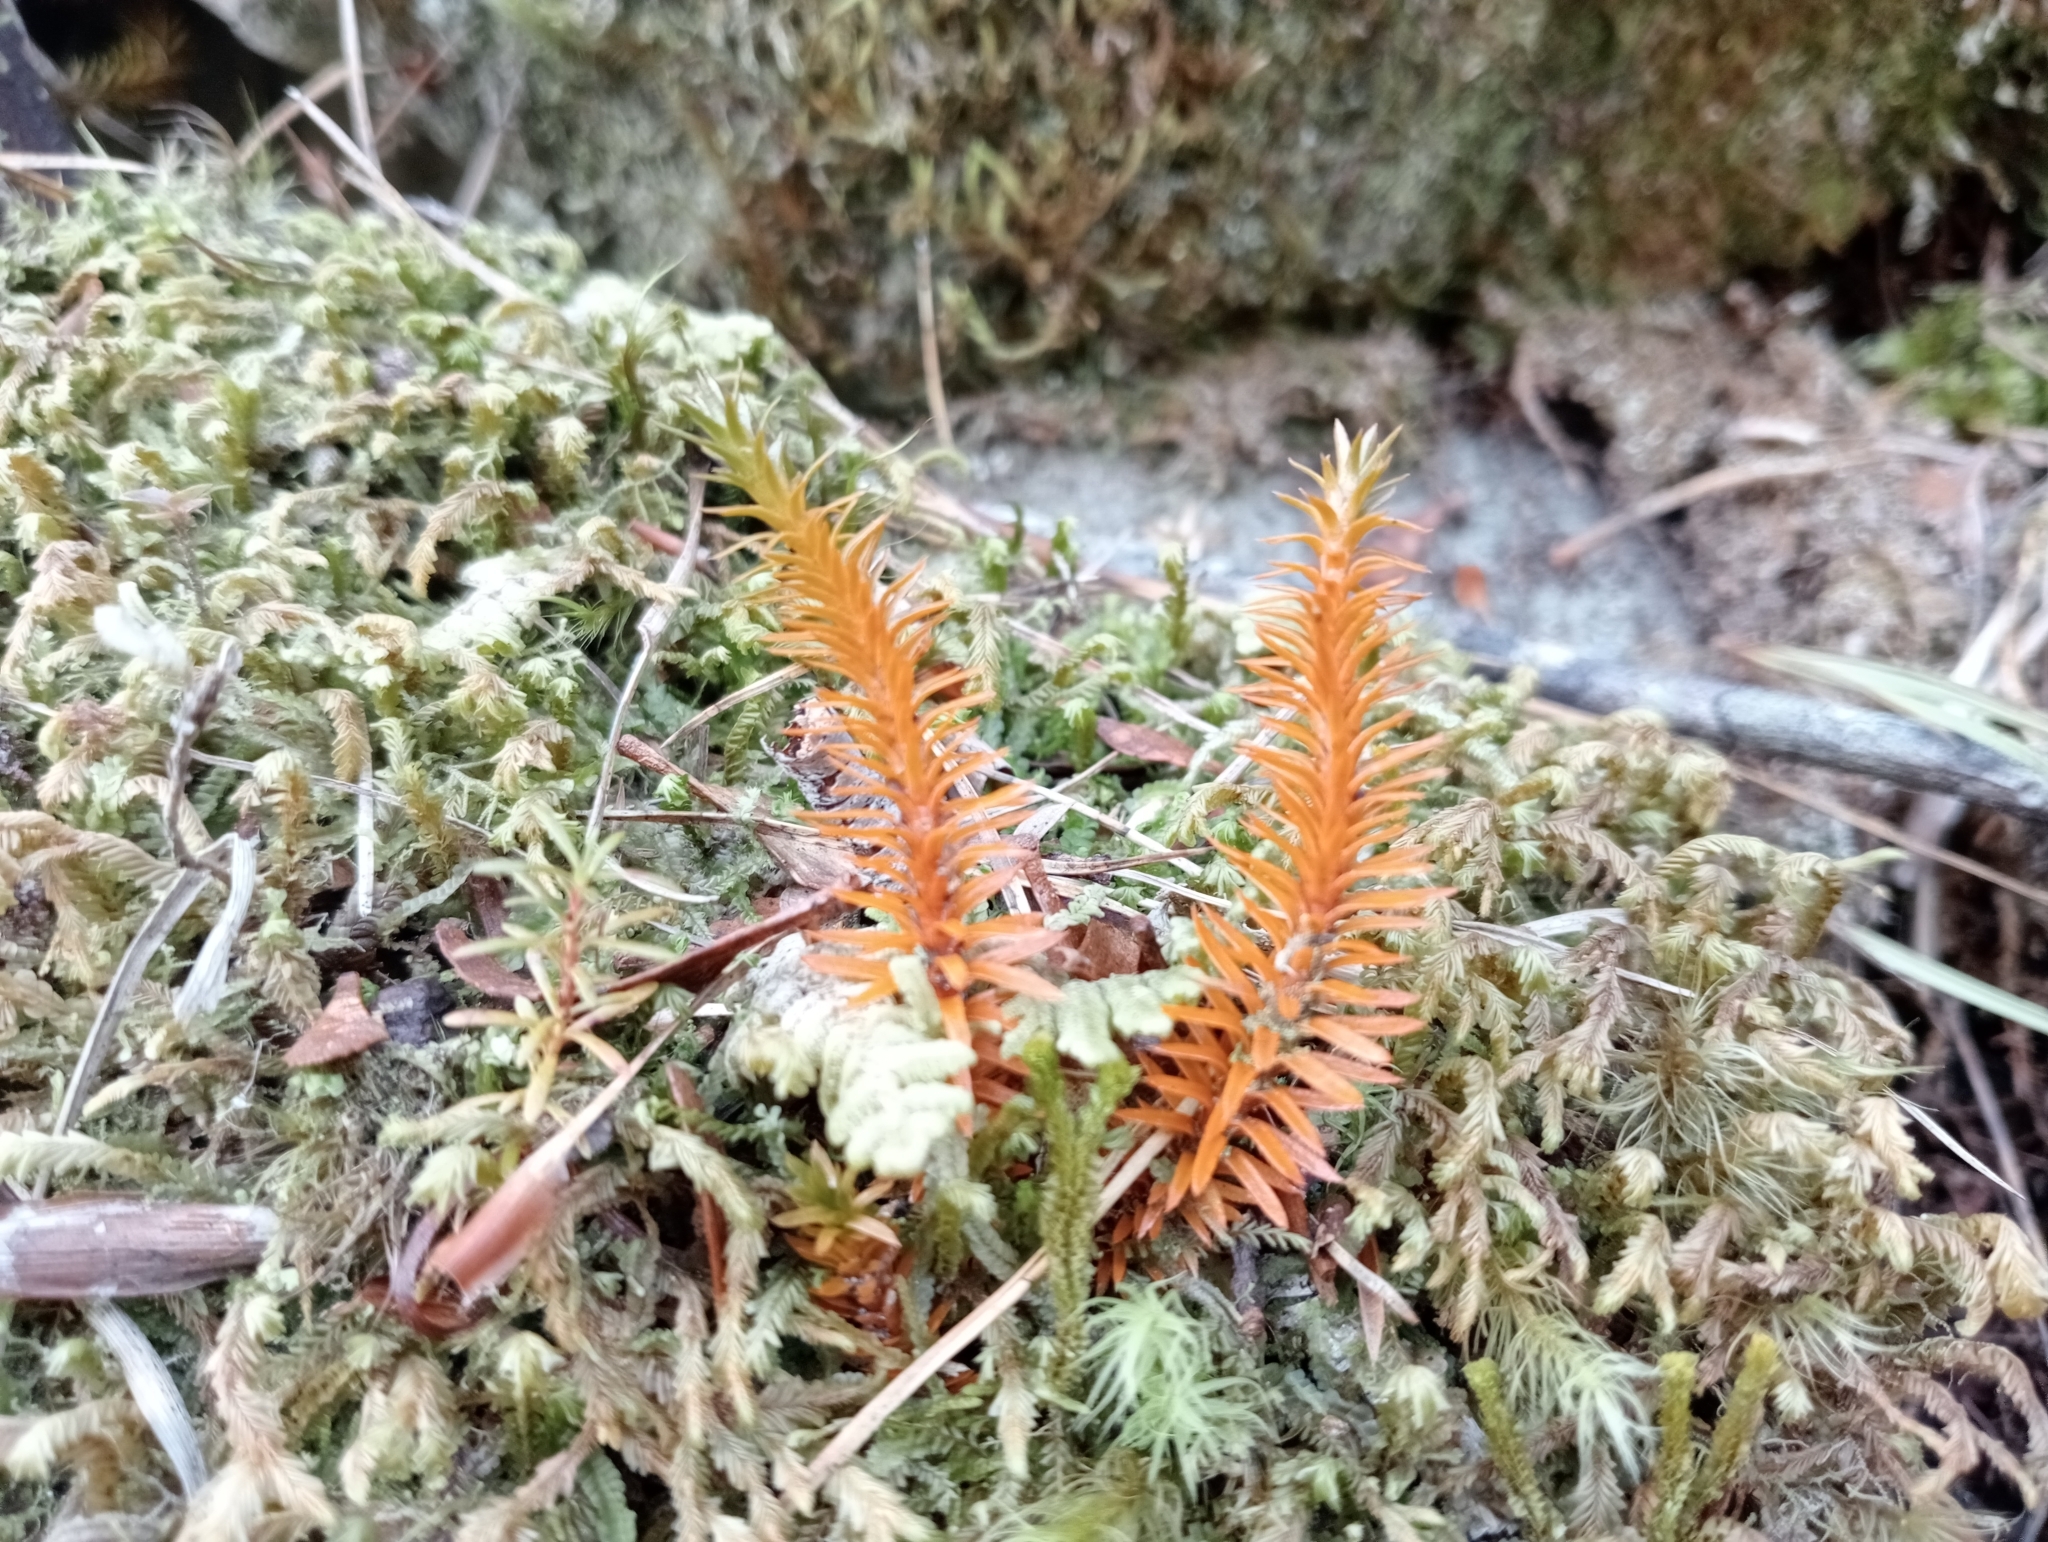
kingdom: Plantae
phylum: Tracheophyta
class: Lycopodiopsida
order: Lycopodiales
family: Lycopodiaceae
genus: Huperzia
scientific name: Huperzia australiana
